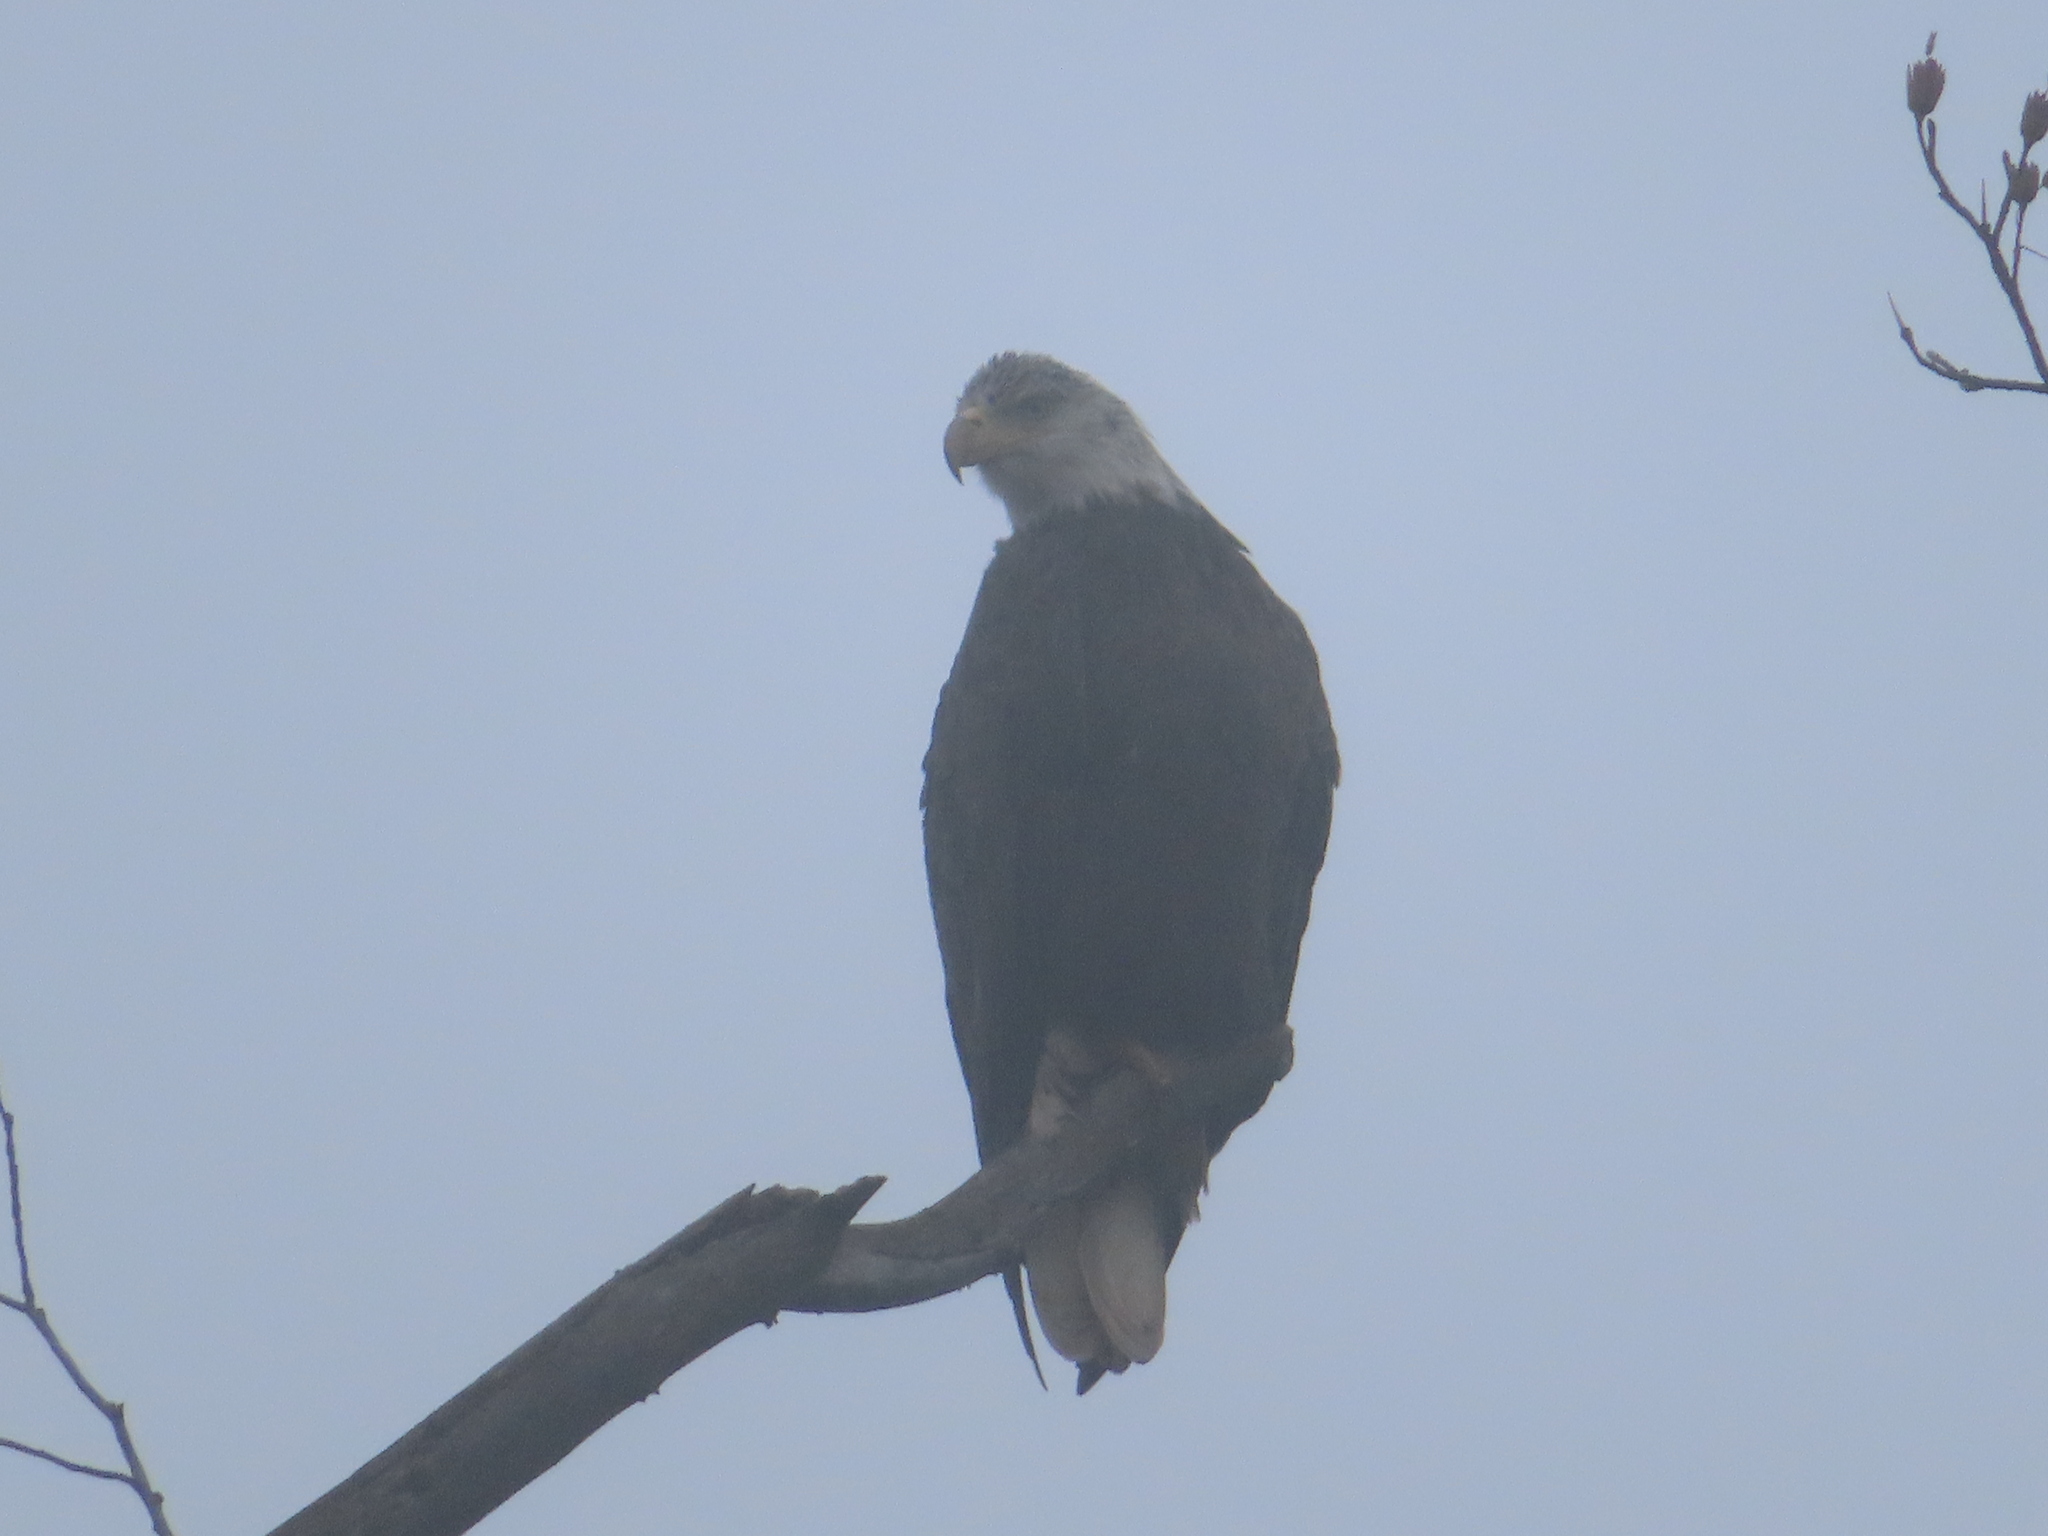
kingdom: Animalia
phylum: Chordata
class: Aves
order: Accipitriformes
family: Accipitridae
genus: Haliaeetus
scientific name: Haliaeetus leucocephalus
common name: Bald eagle
